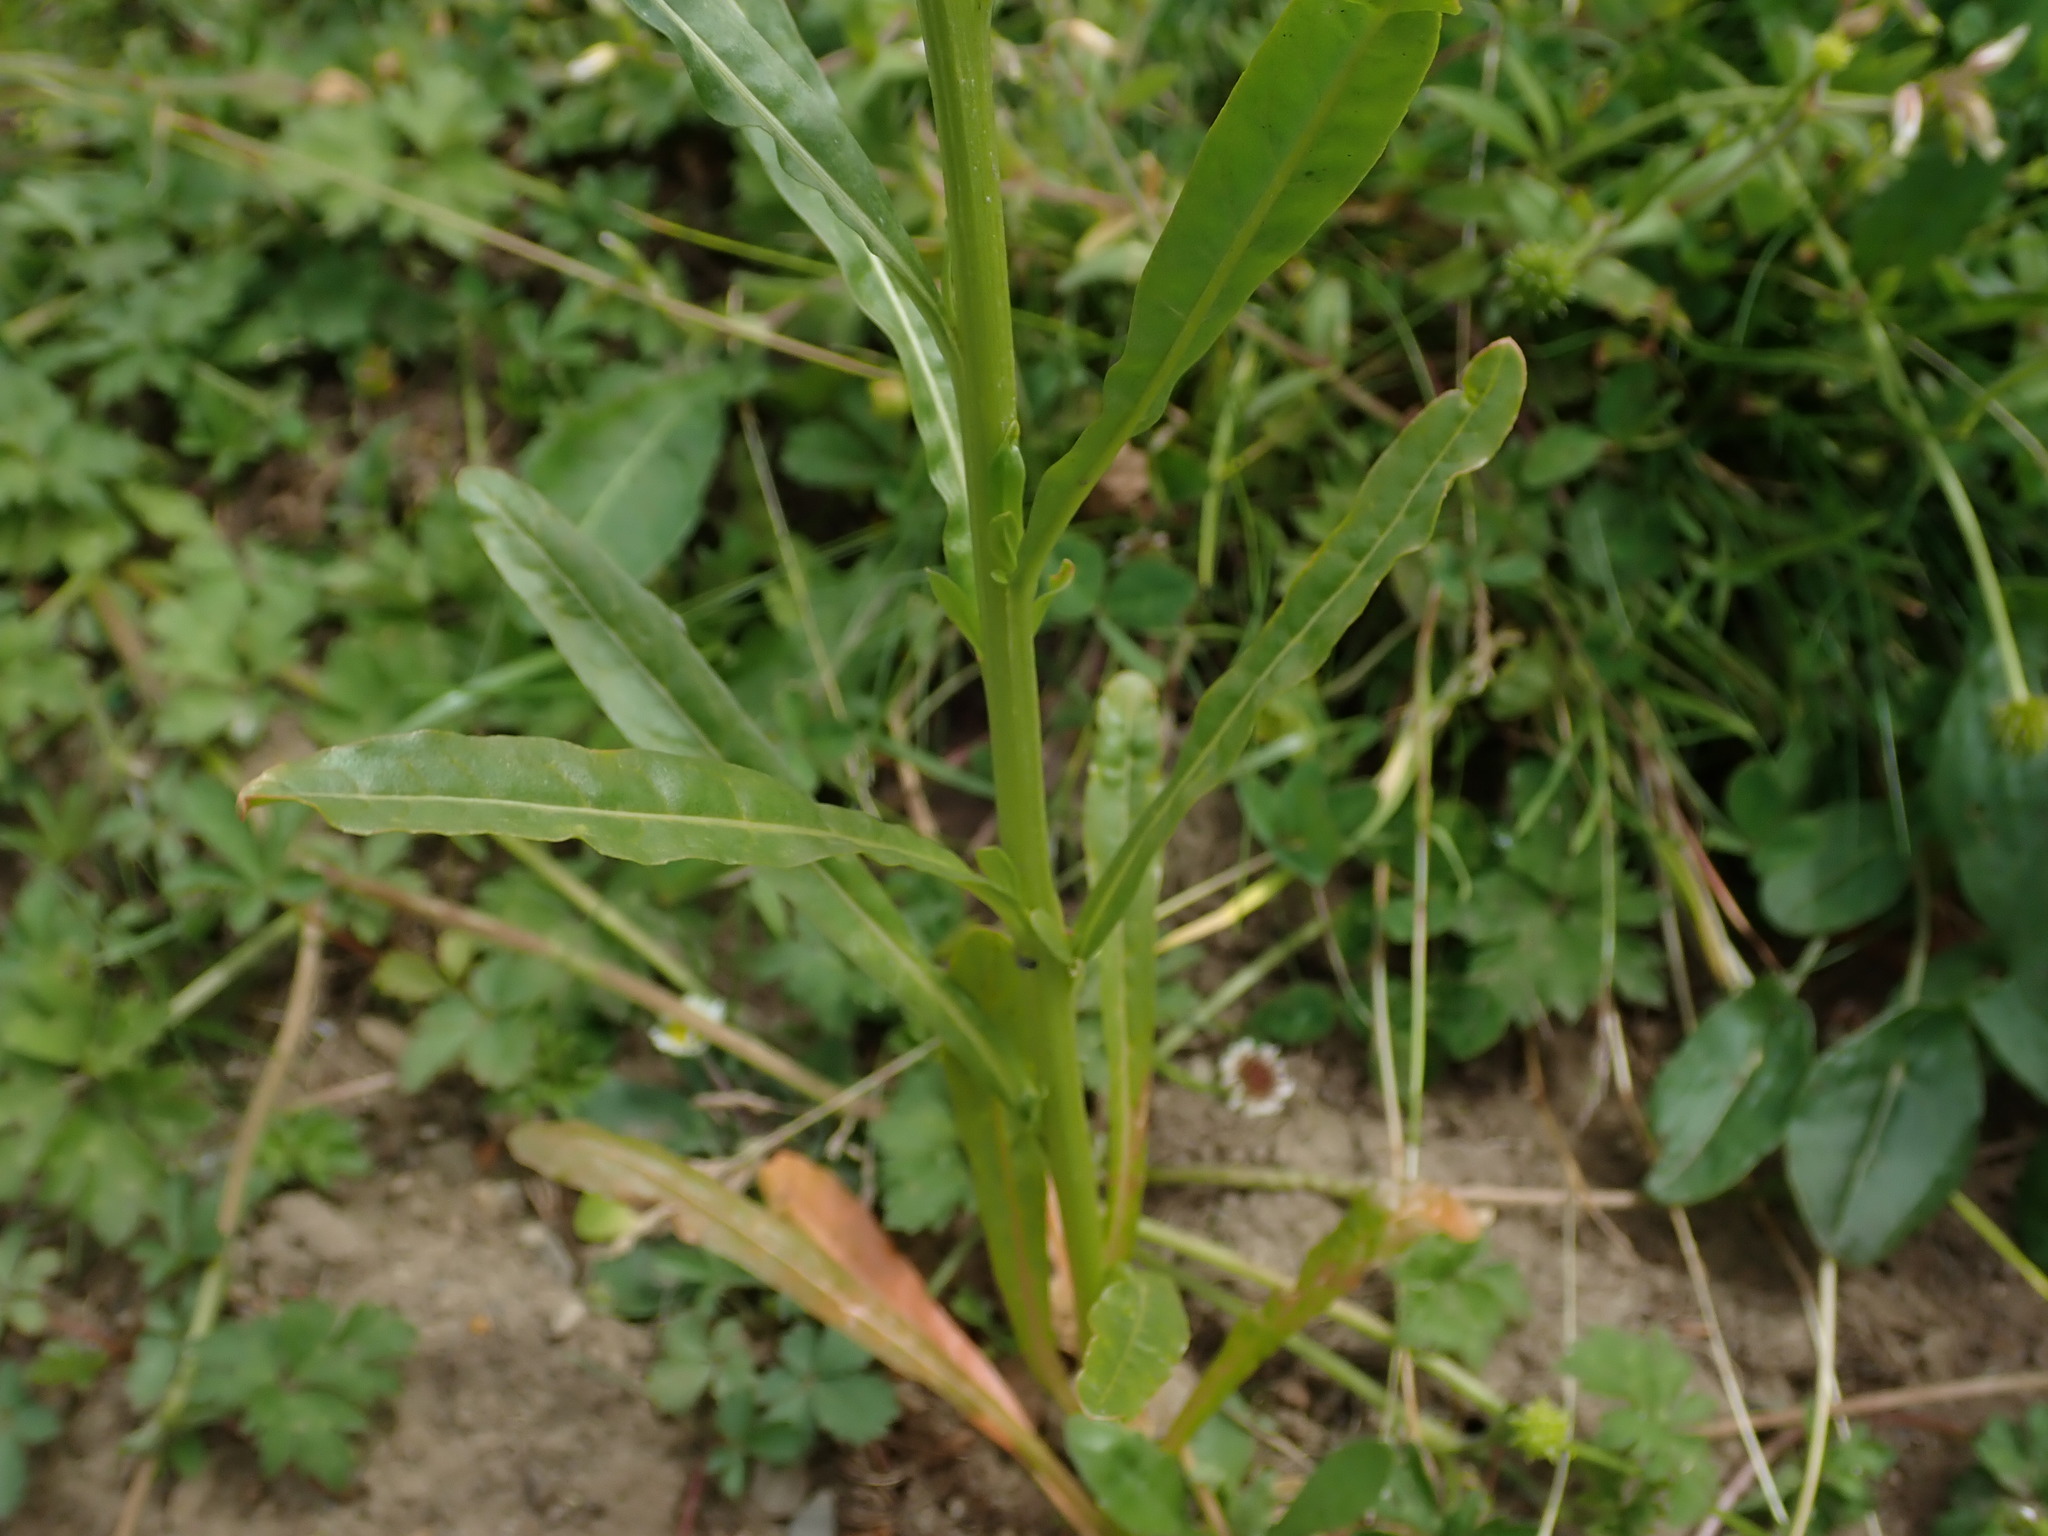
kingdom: Plantae
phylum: Tracheophyta
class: Magnoliopsida
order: Brassicales
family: Resedaceae
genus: Reseda
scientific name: Reseda luteola
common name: Weld
